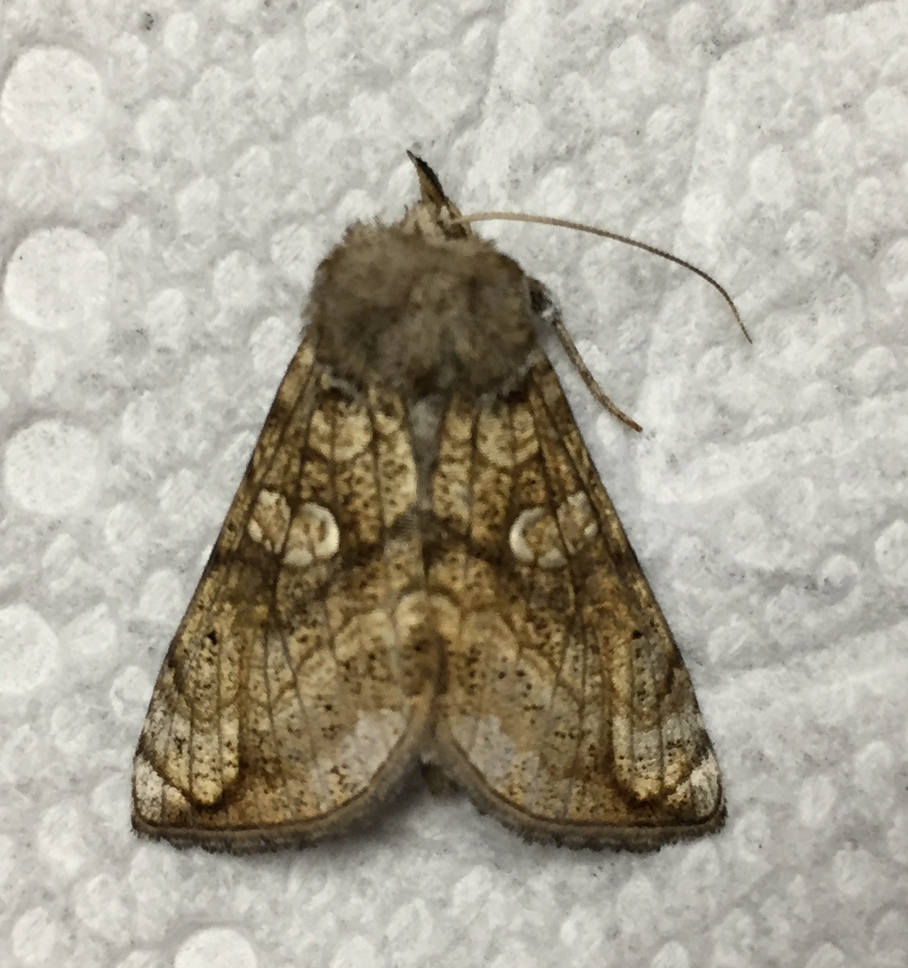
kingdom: Animalia
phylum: Arthropoda
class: Insecta
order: Lepidoptera
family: Noctuidae
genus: Polychrysia
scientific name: Polychrysia esmeralda
